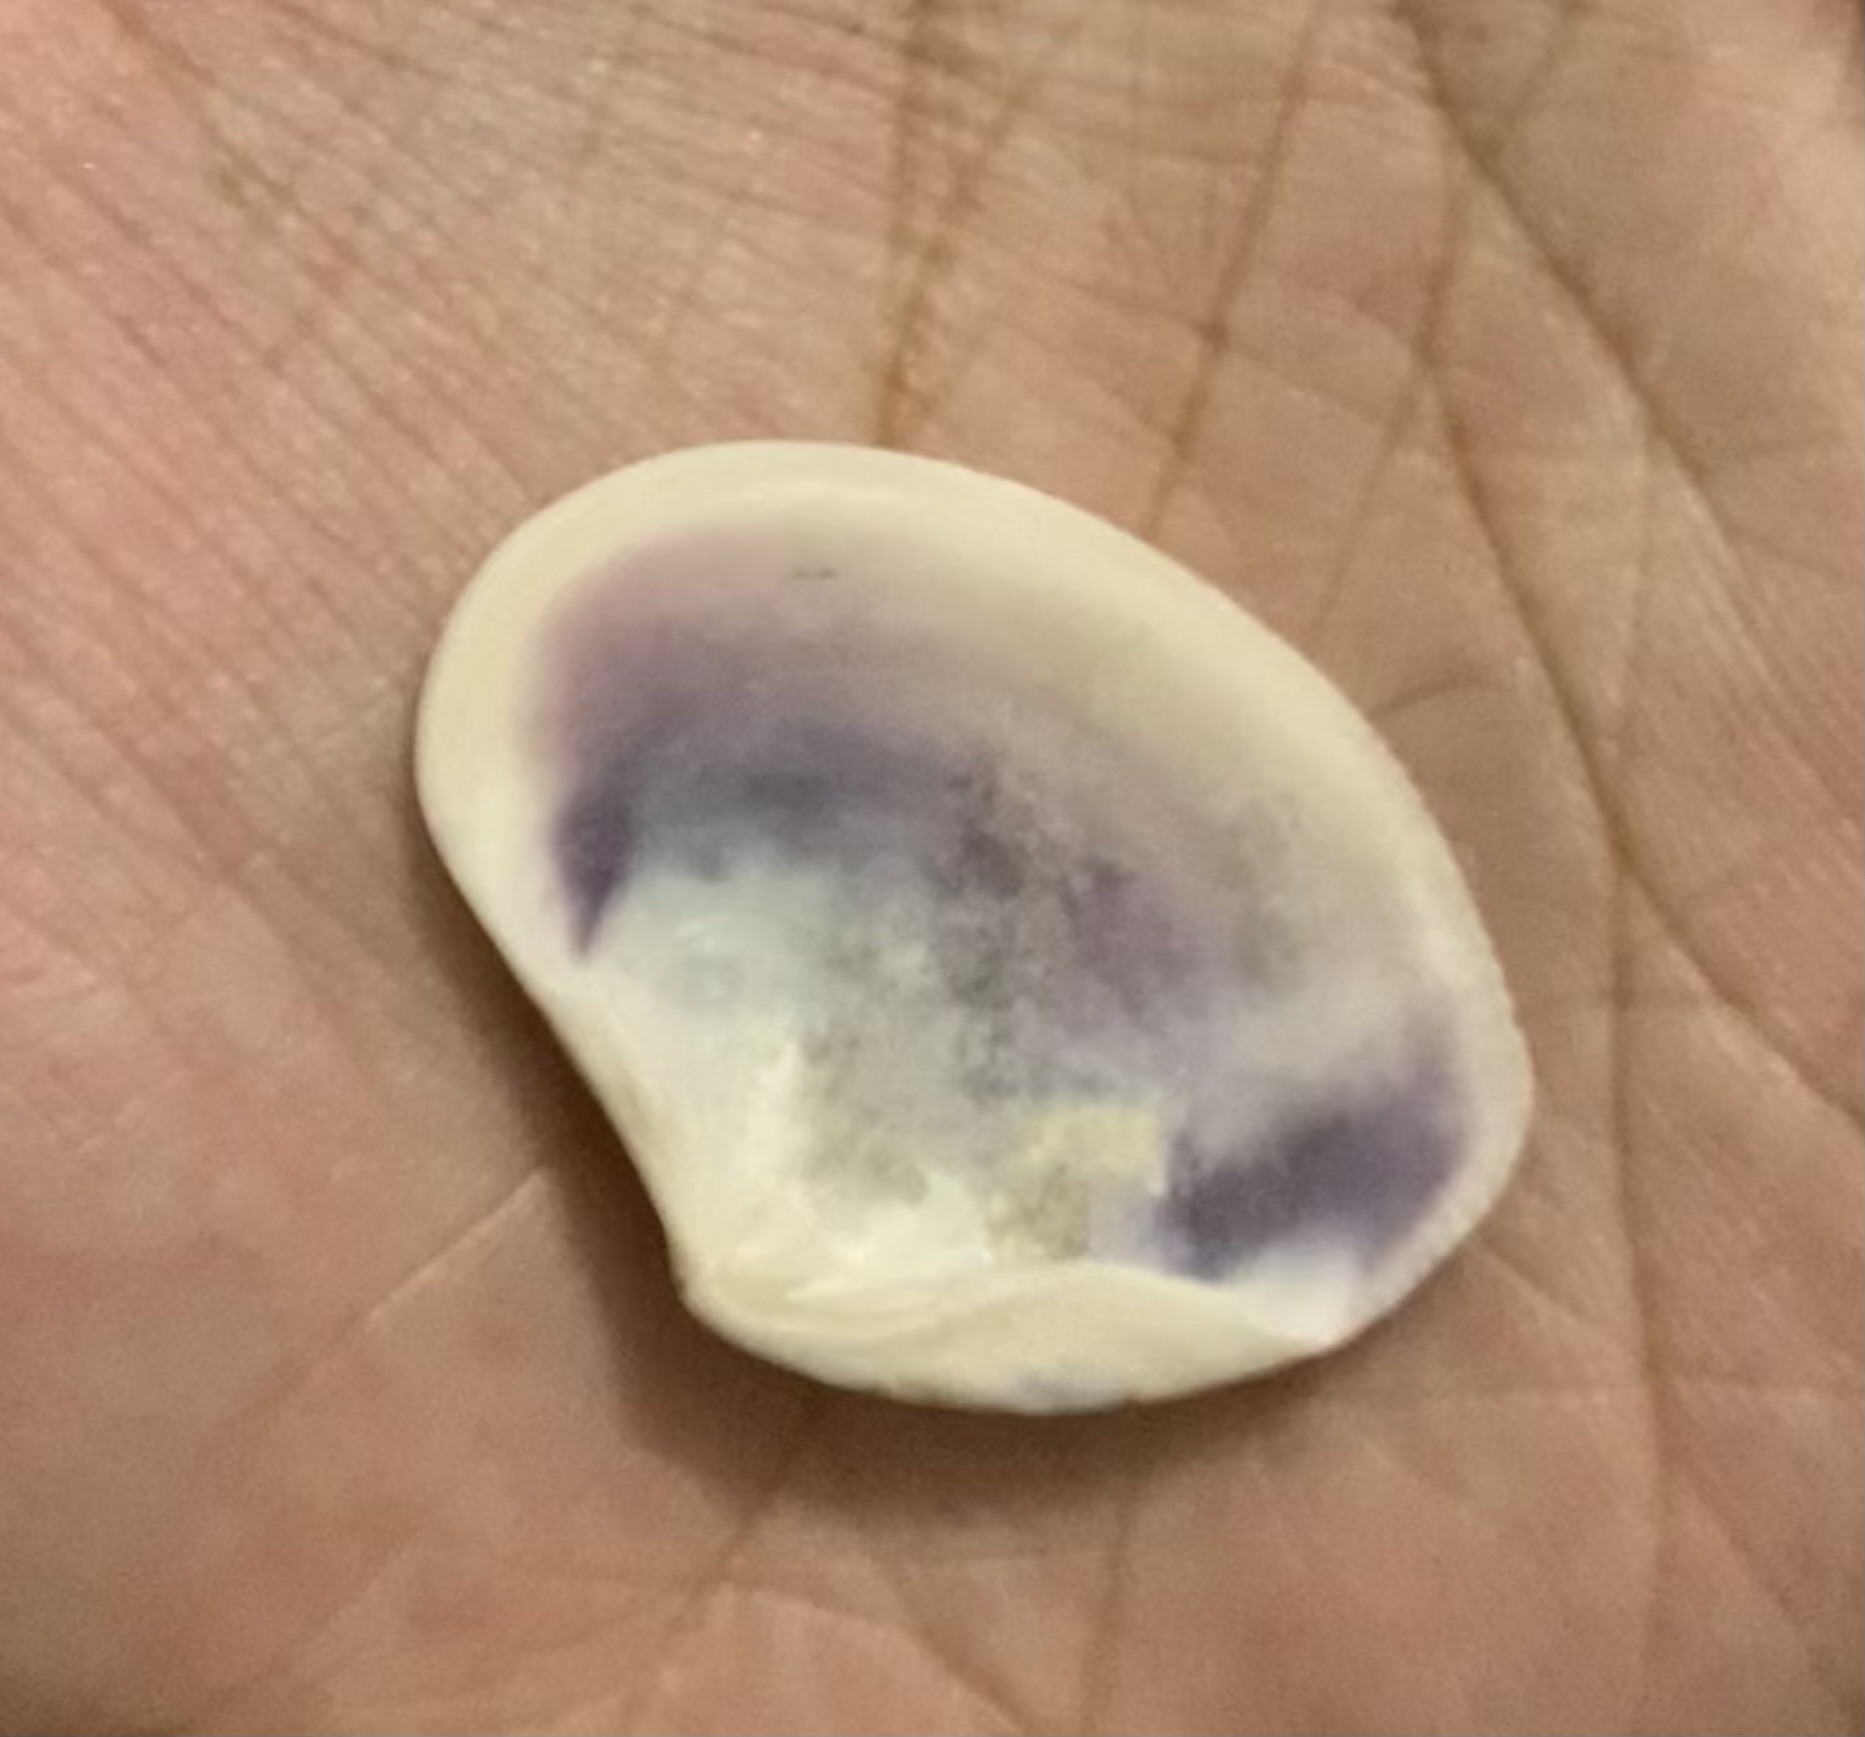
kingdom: Animalia
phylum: Mollusca
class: Bivalvia
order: Venerida
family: Veneridae
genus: Sunetta
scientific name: Sunetta scripta
